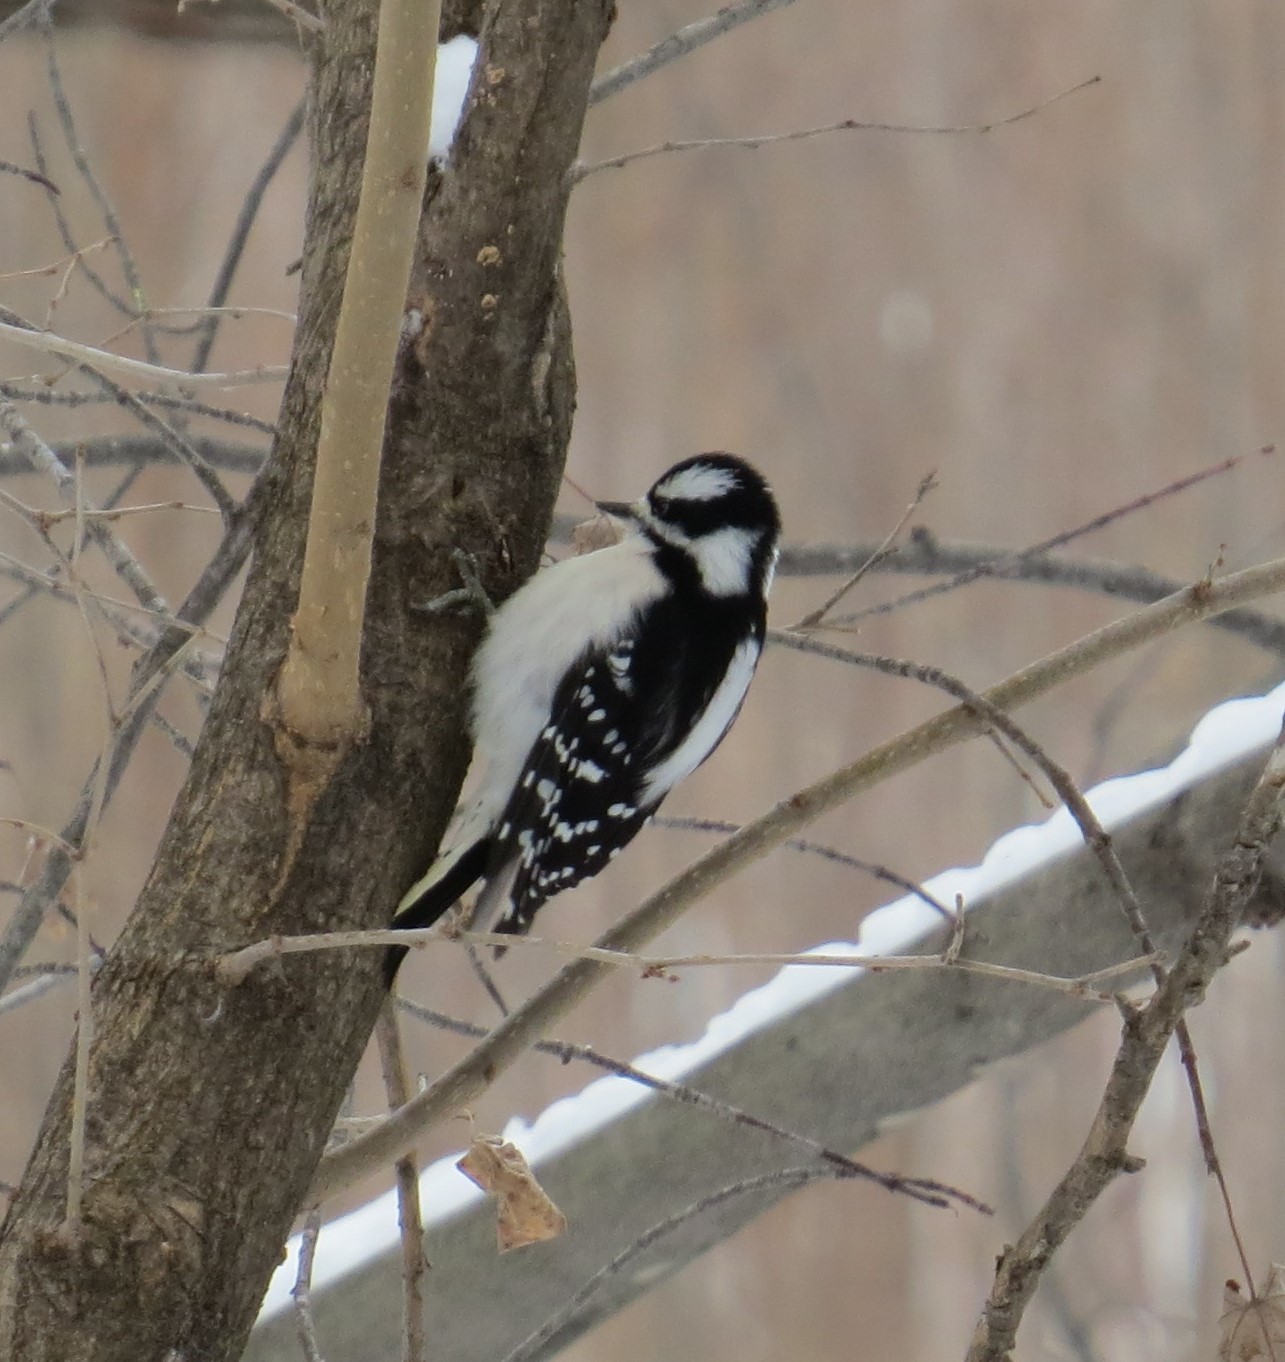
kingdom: Animalia
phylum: Chordata
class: Aves
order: Piciformes
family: Picidae
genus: Dryobates
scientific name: Dryobates pubescens
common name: Downy woodpecker
